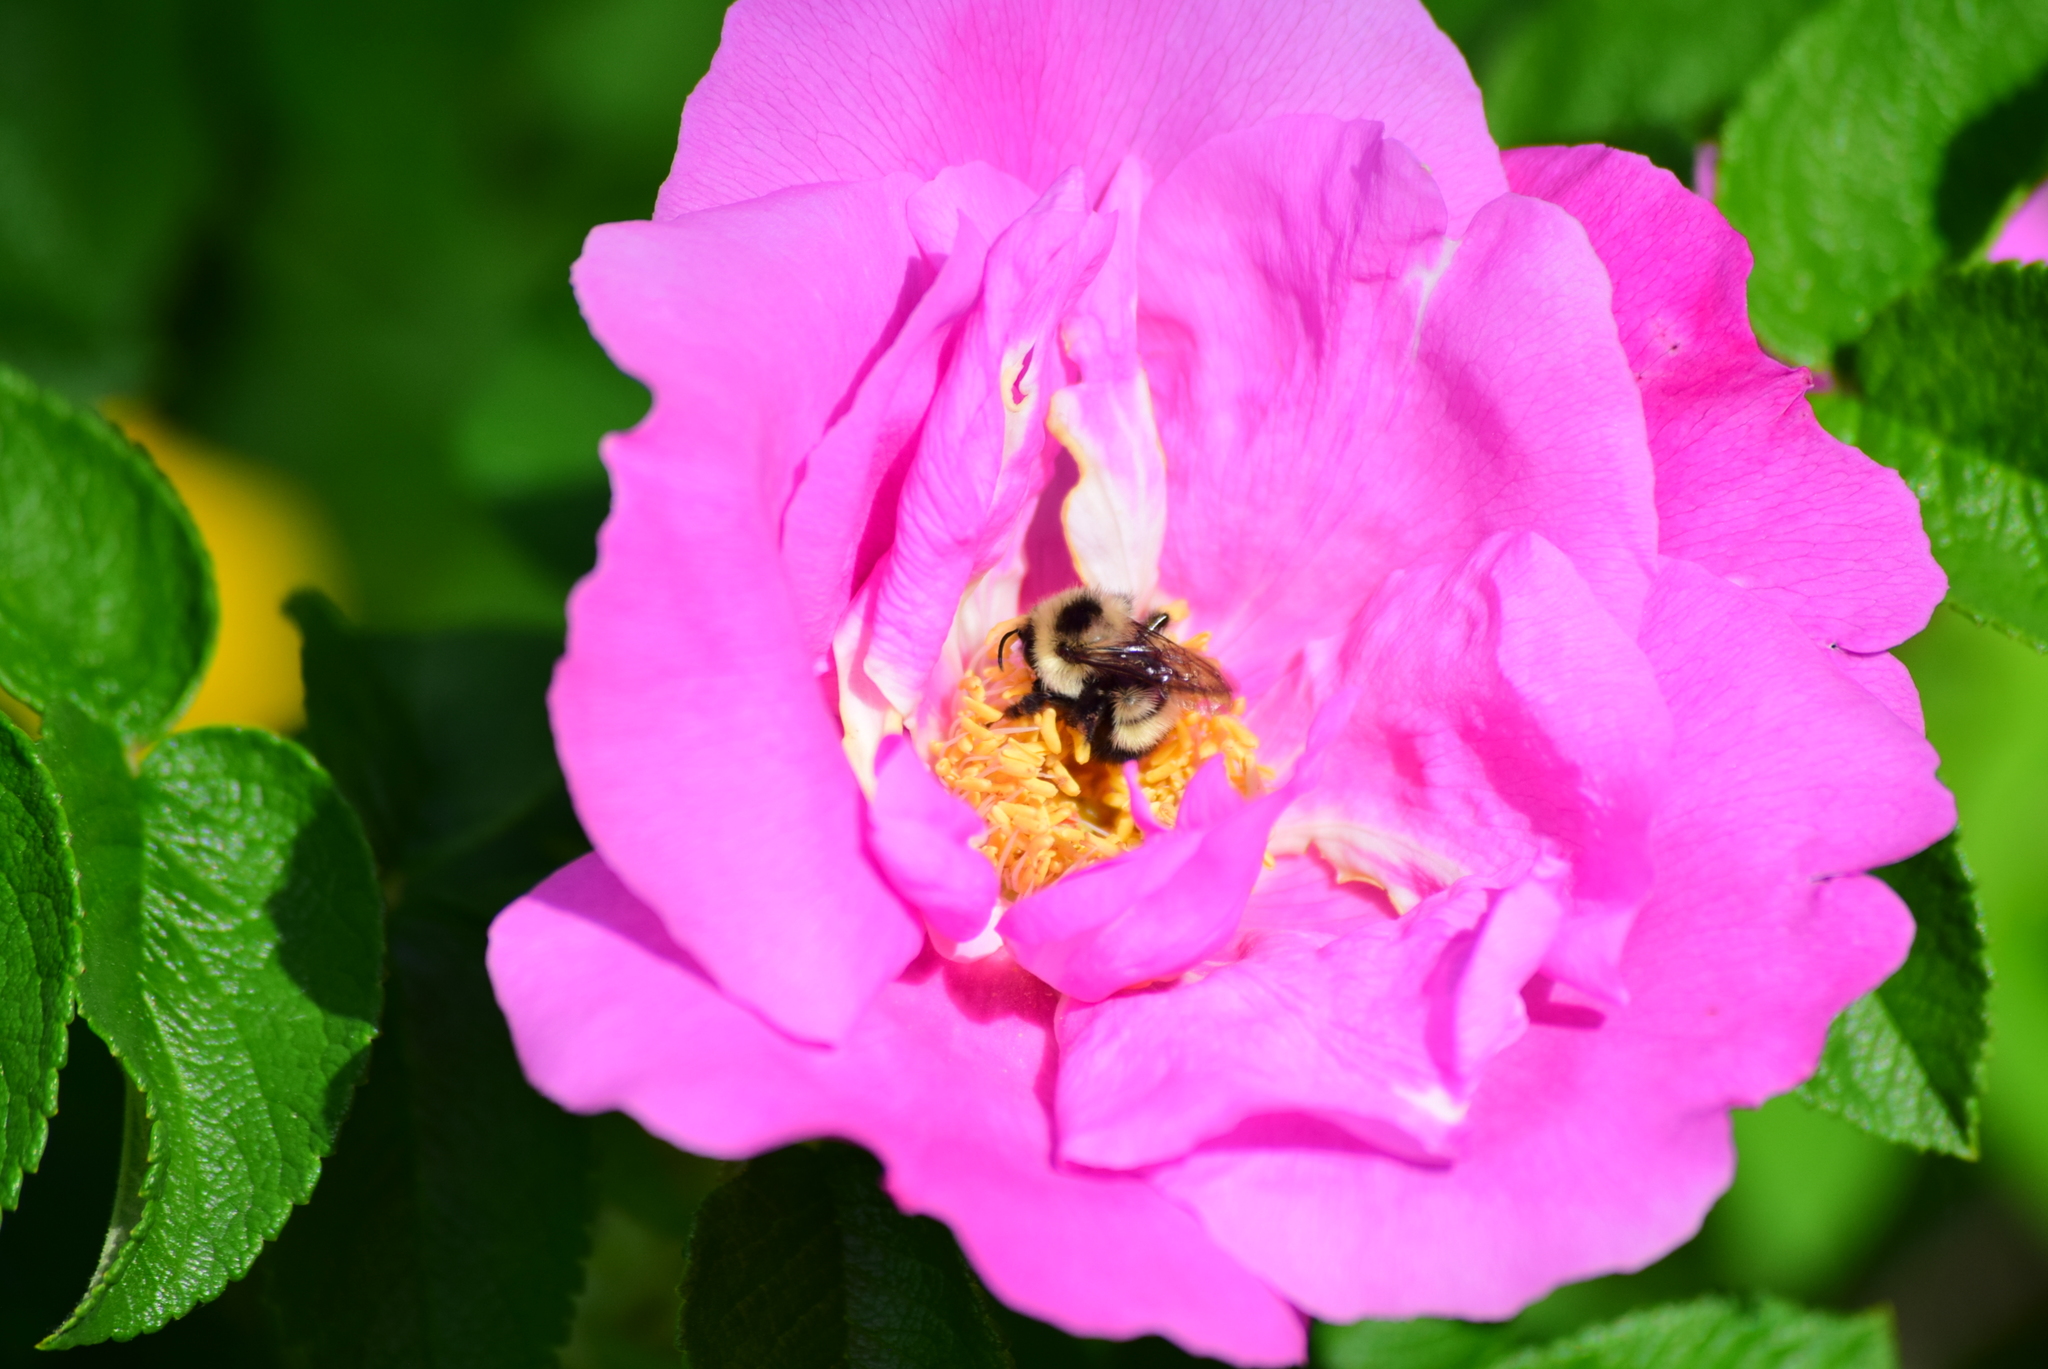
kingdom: Animalia
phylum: Arthropoda
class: Insecta
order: Hymenoptera
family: Apidae
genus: Pyrobombus
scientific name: Pyrobombus
